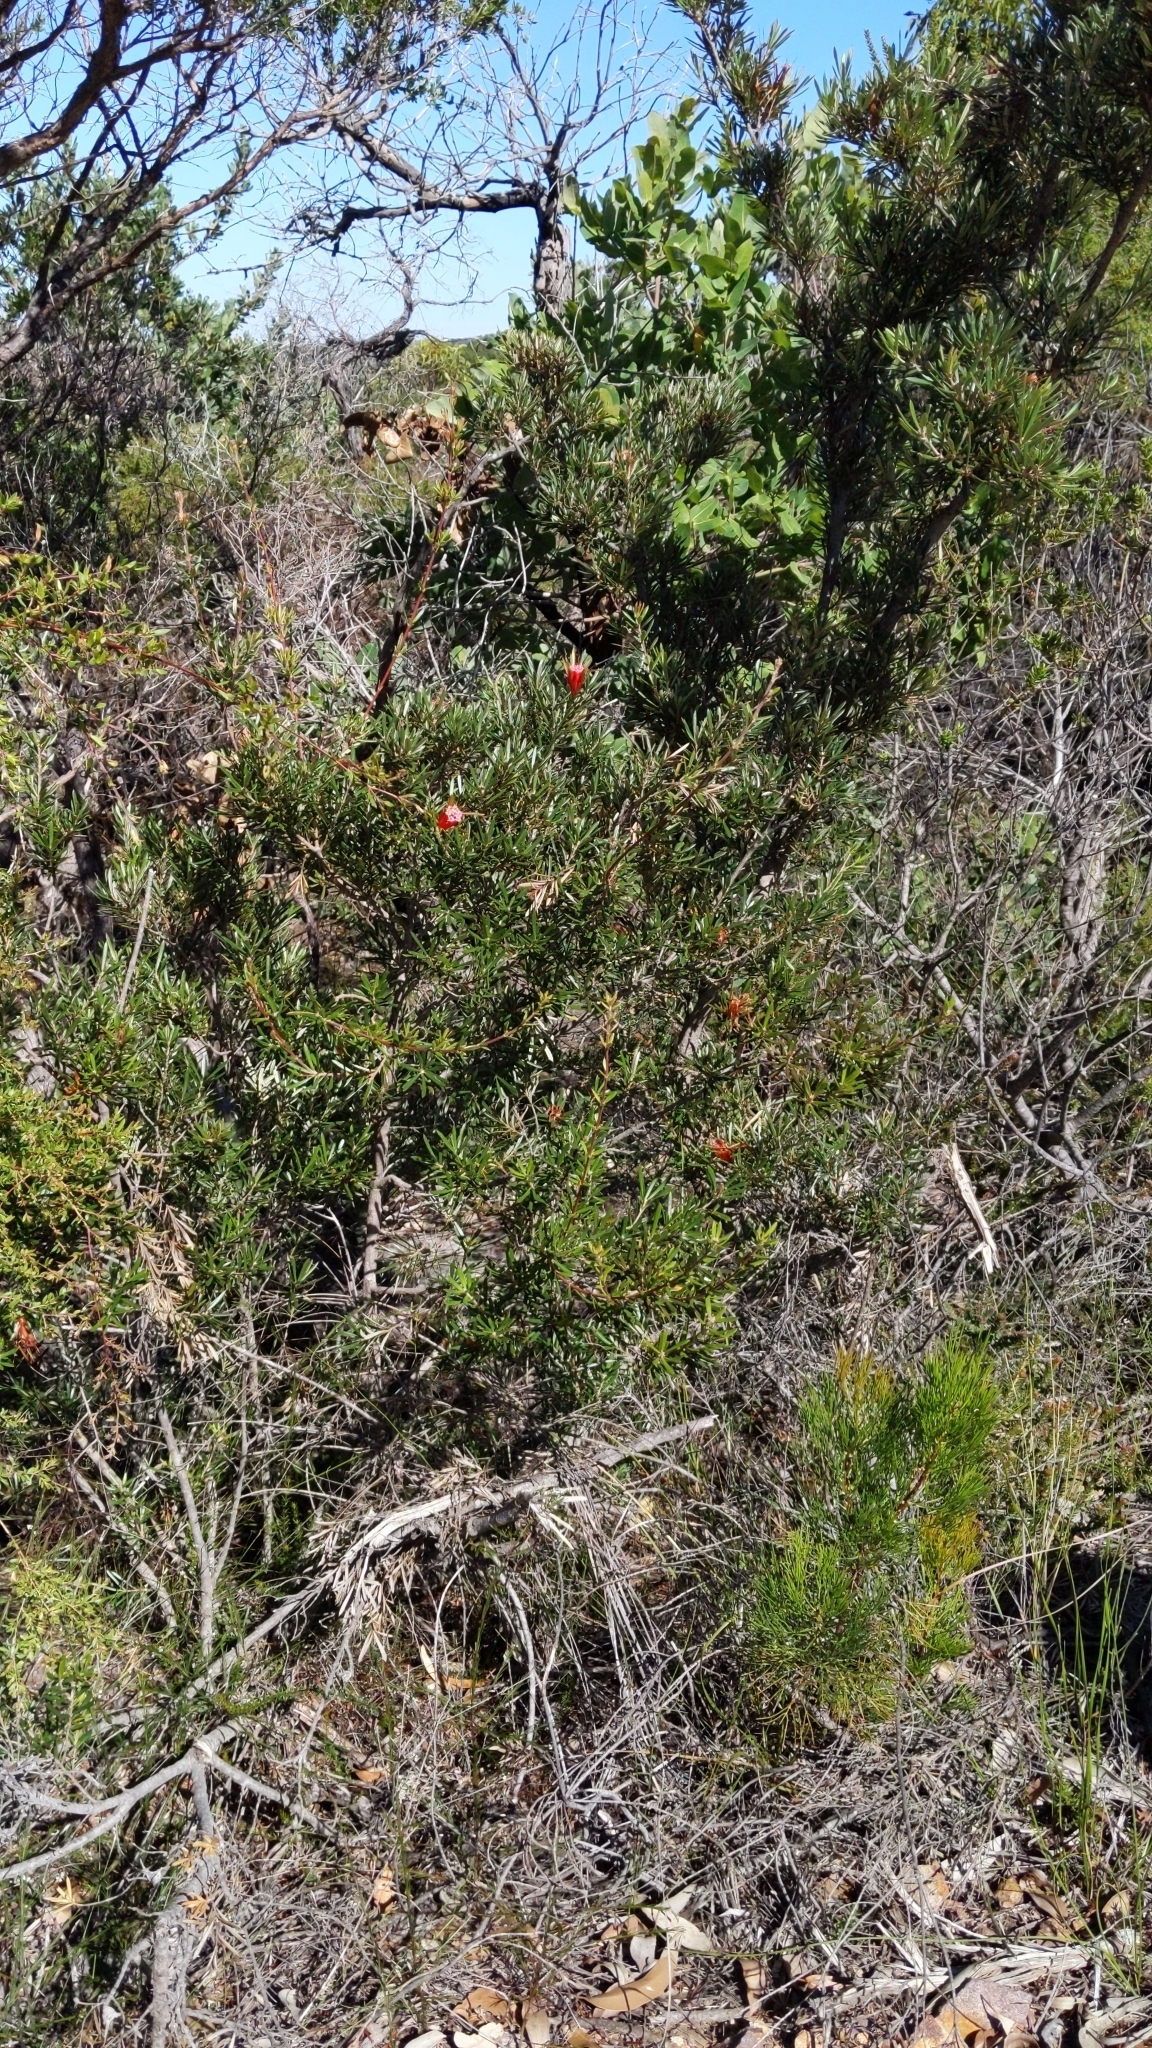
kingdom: Plantae
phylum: Tracheophyta
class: Magnoliopsida
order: Proteales
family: Proteaceae
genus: Lambertia
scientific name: Lambertia formosa
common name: Mountain-devil
